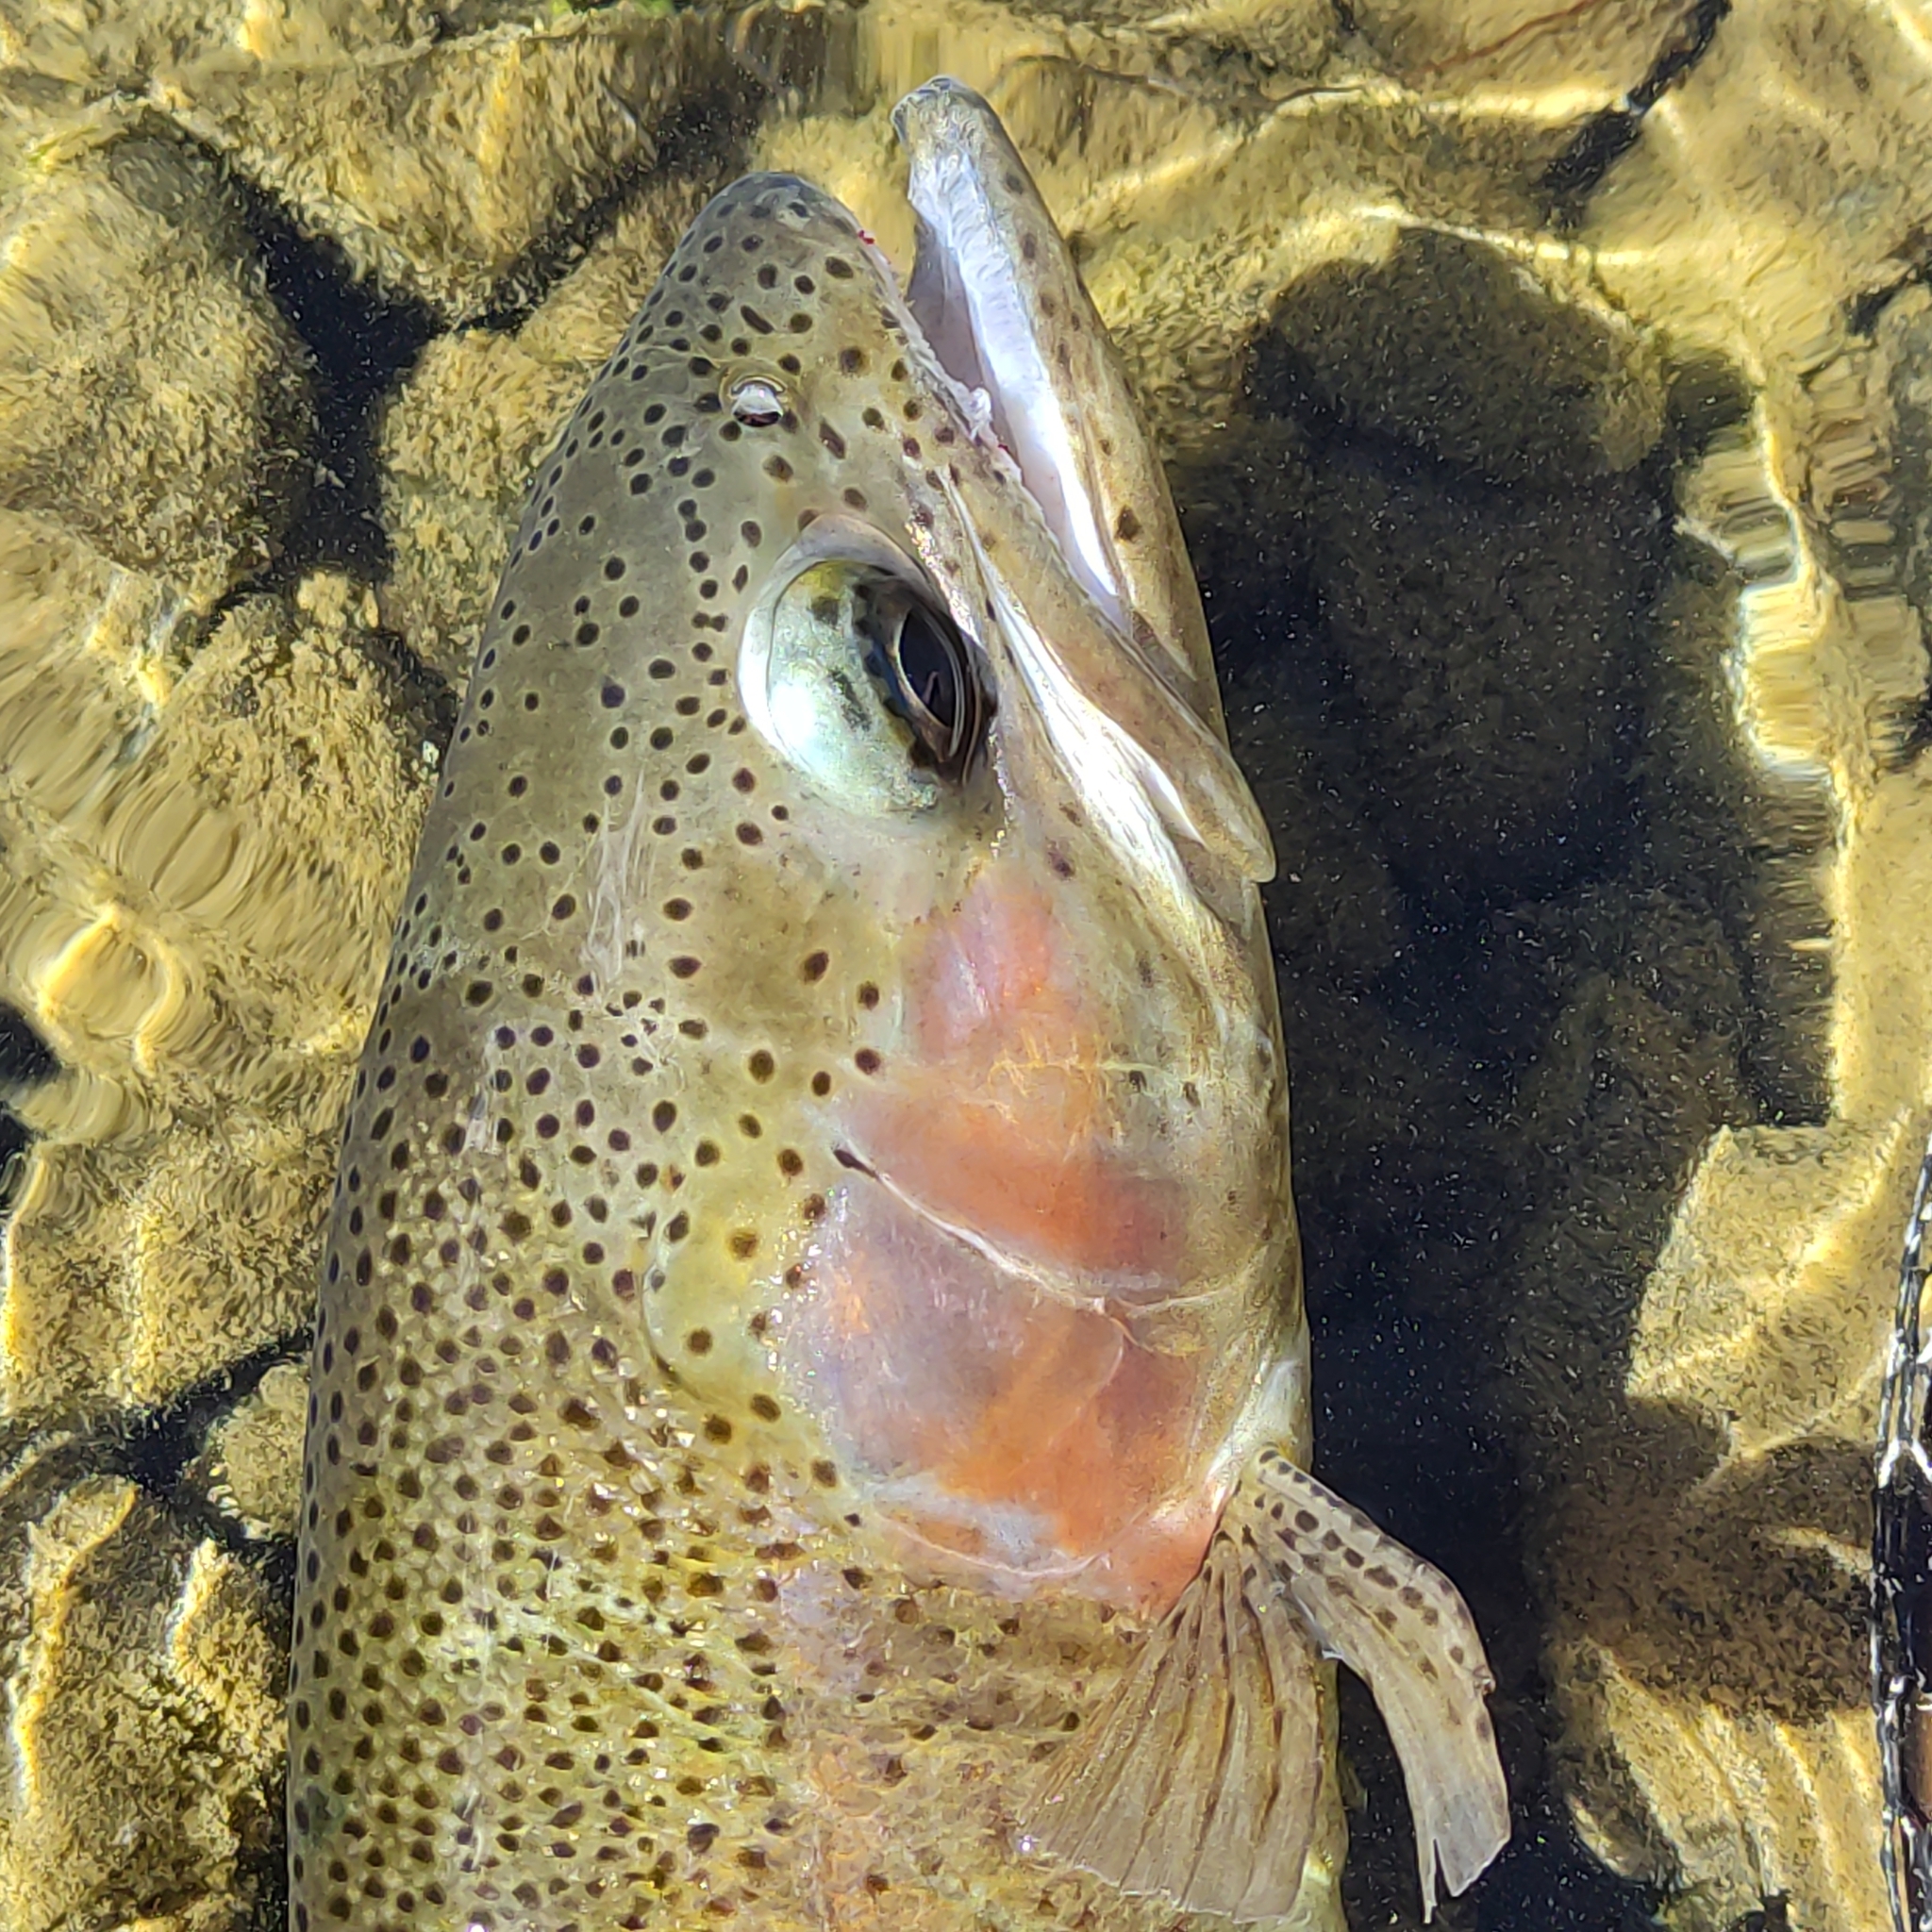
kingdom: Animalia
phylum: Chordata
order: Salmoniformes
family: Salmonidae
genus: Oncorhynchus
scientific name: Oncorhynchus mykiss
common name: Rainbow trout
